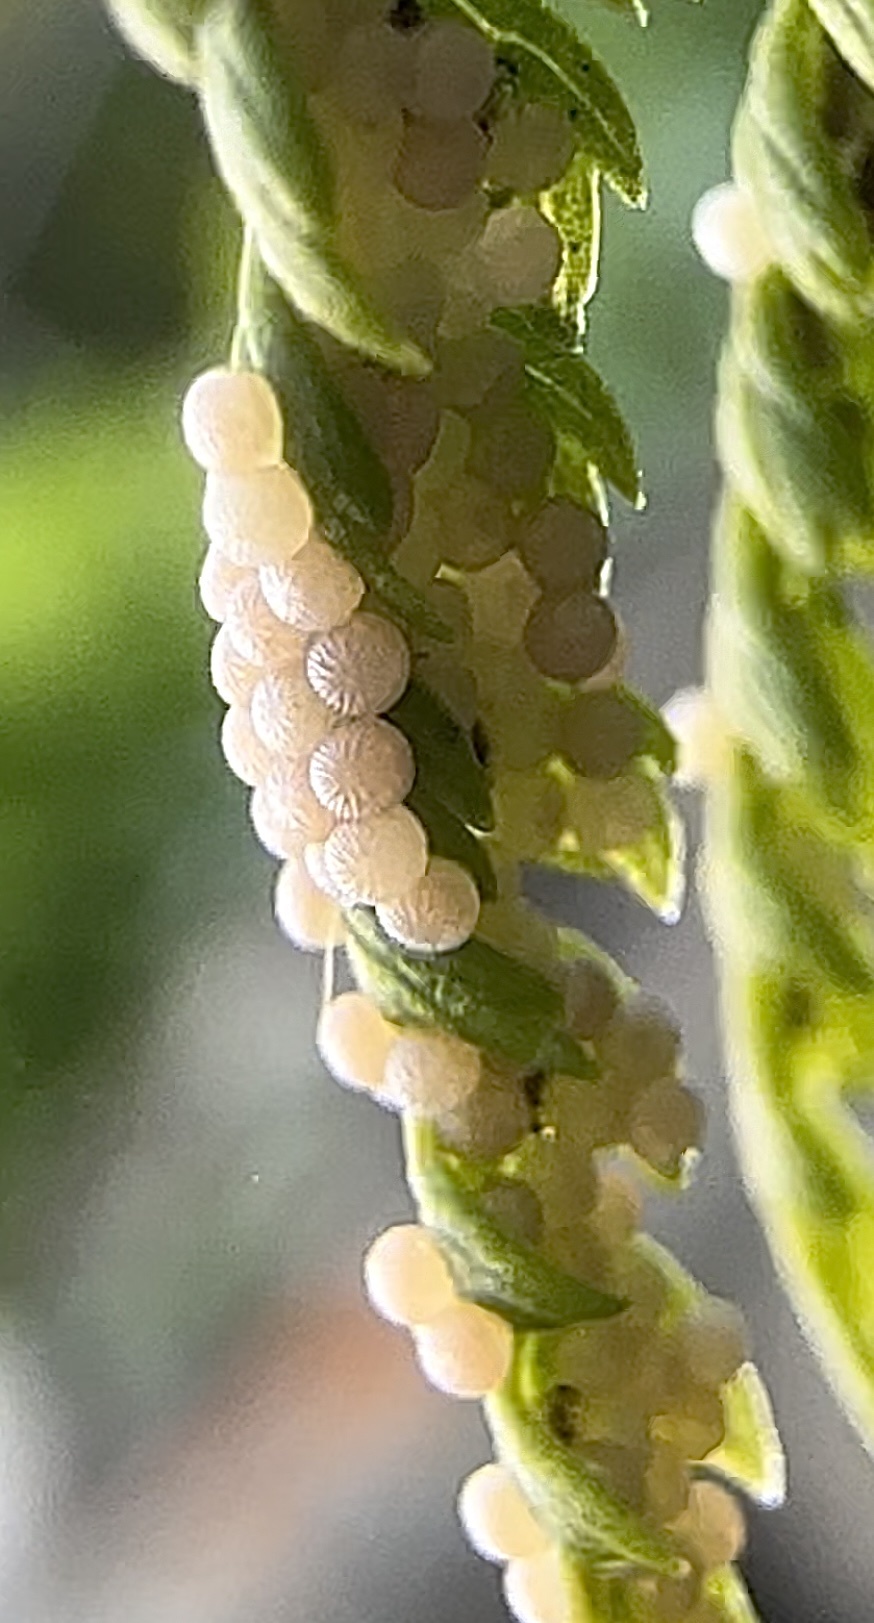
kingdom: Animalia
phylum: Arthropoda
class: Insecta
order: Lepidoptera
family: Noctuidae
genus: Noctua
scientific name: Noctua pronuba
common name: Large yellow underwing
